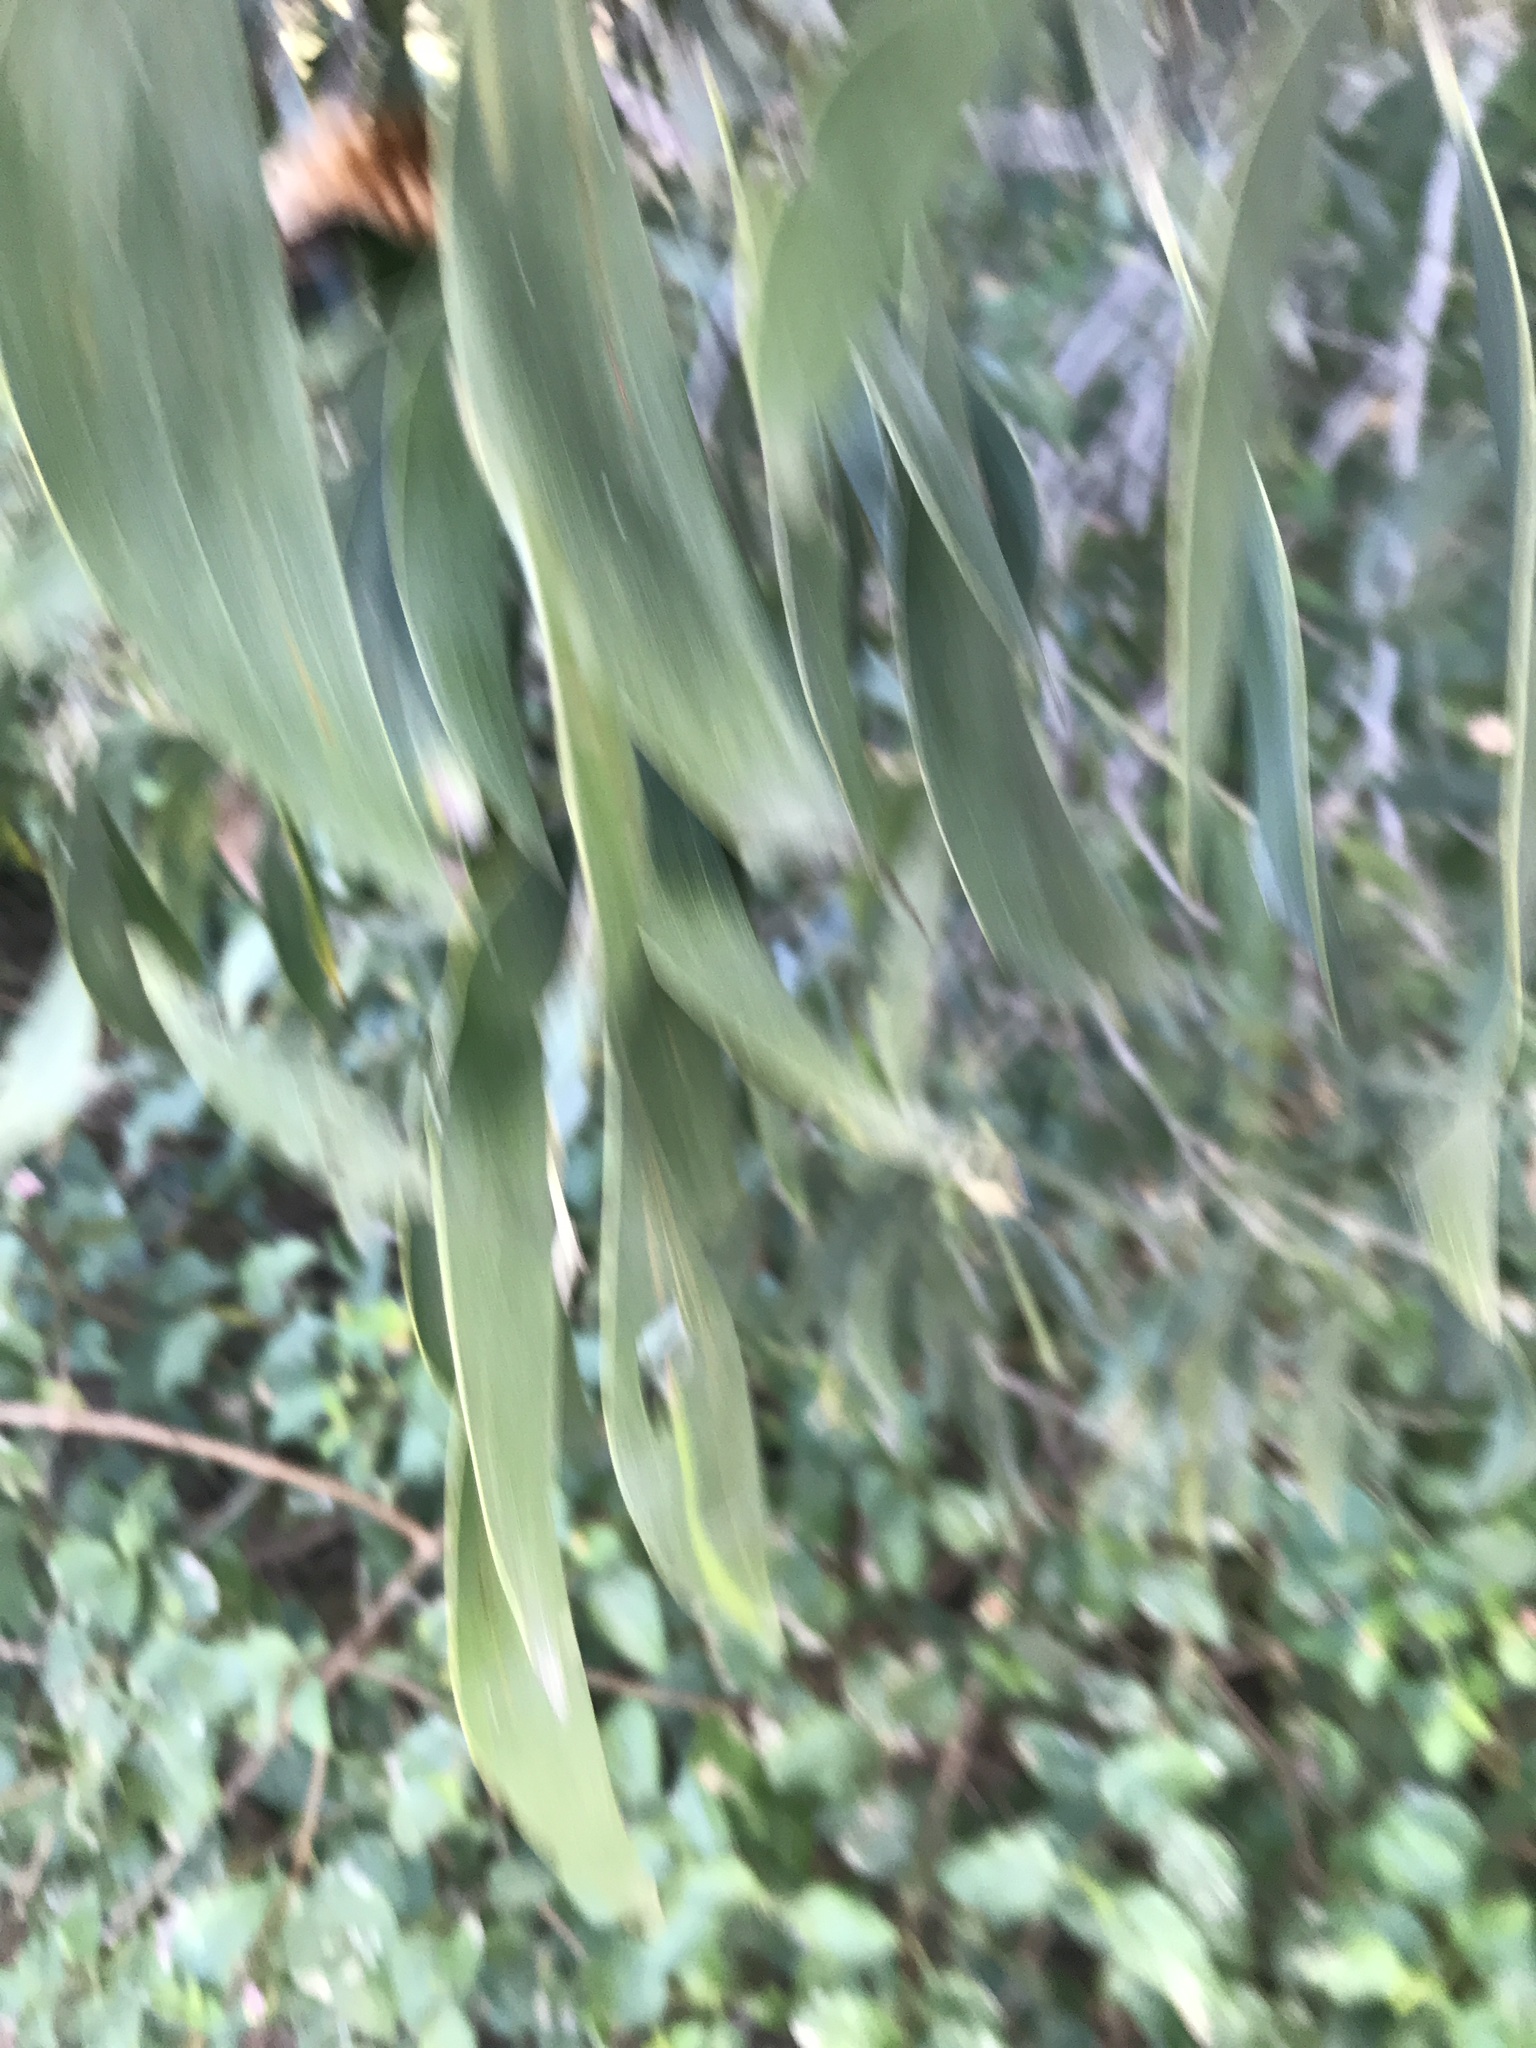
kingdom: Plantae
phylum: Tracheophyta
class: Magnoliopsida
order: Fabales
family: Fabaceae
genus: Acacia
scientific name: Acacia concurrens
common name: Black wattle
